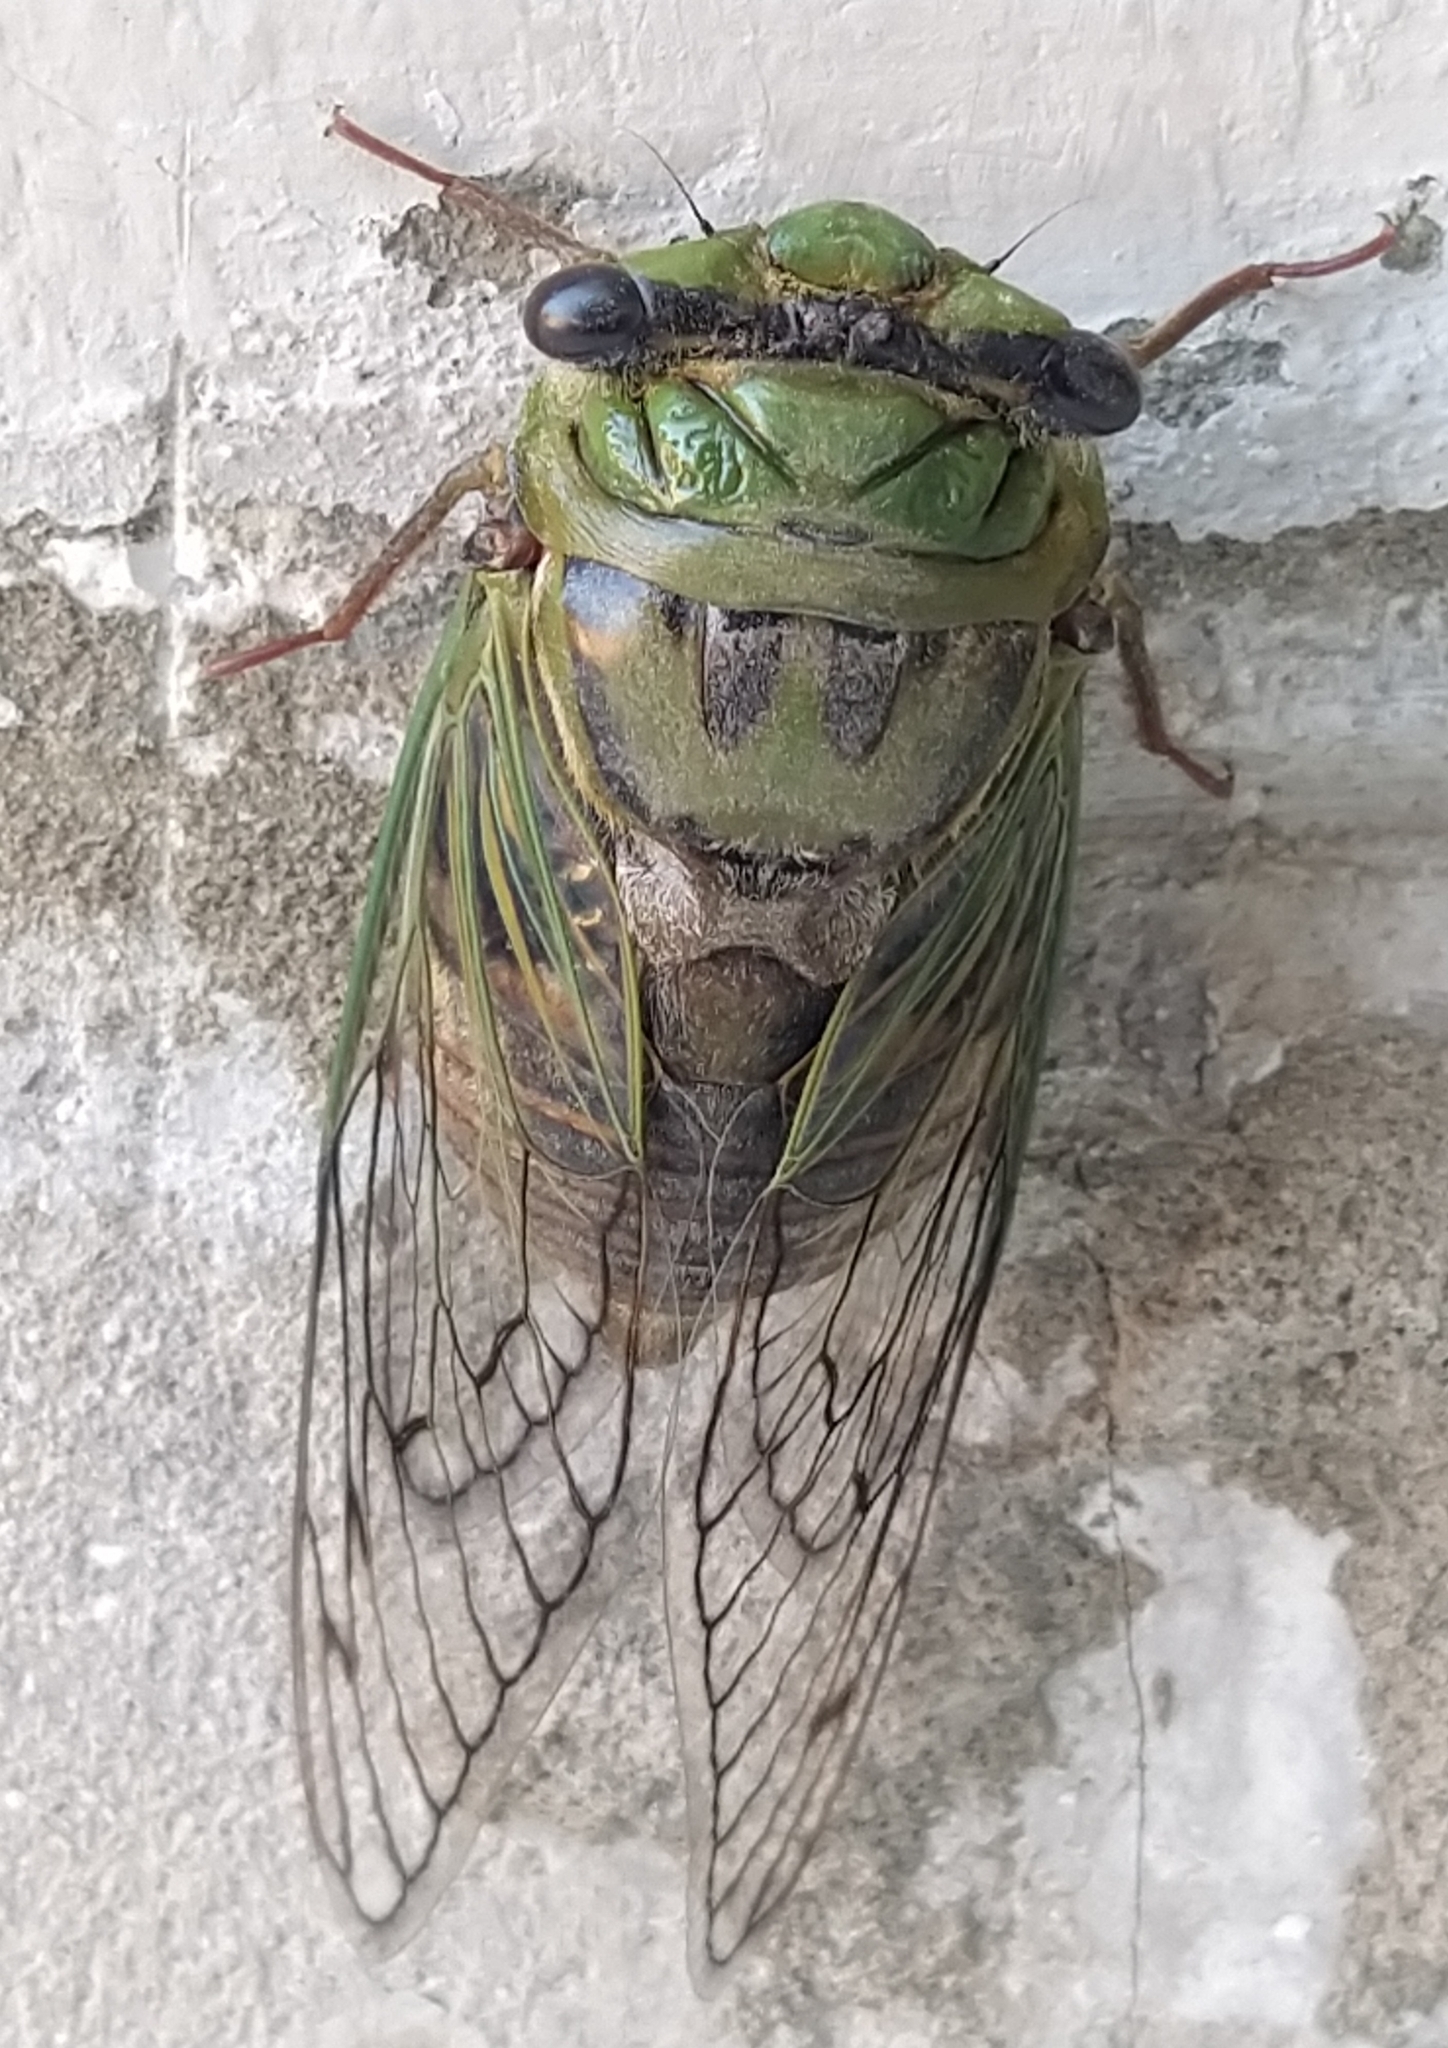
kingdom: Animalia
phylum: Arthropoda
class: Insecta
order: Hemiptera
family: Cicadidae
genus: Guyalna
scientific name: Guyalna bonaerensis
